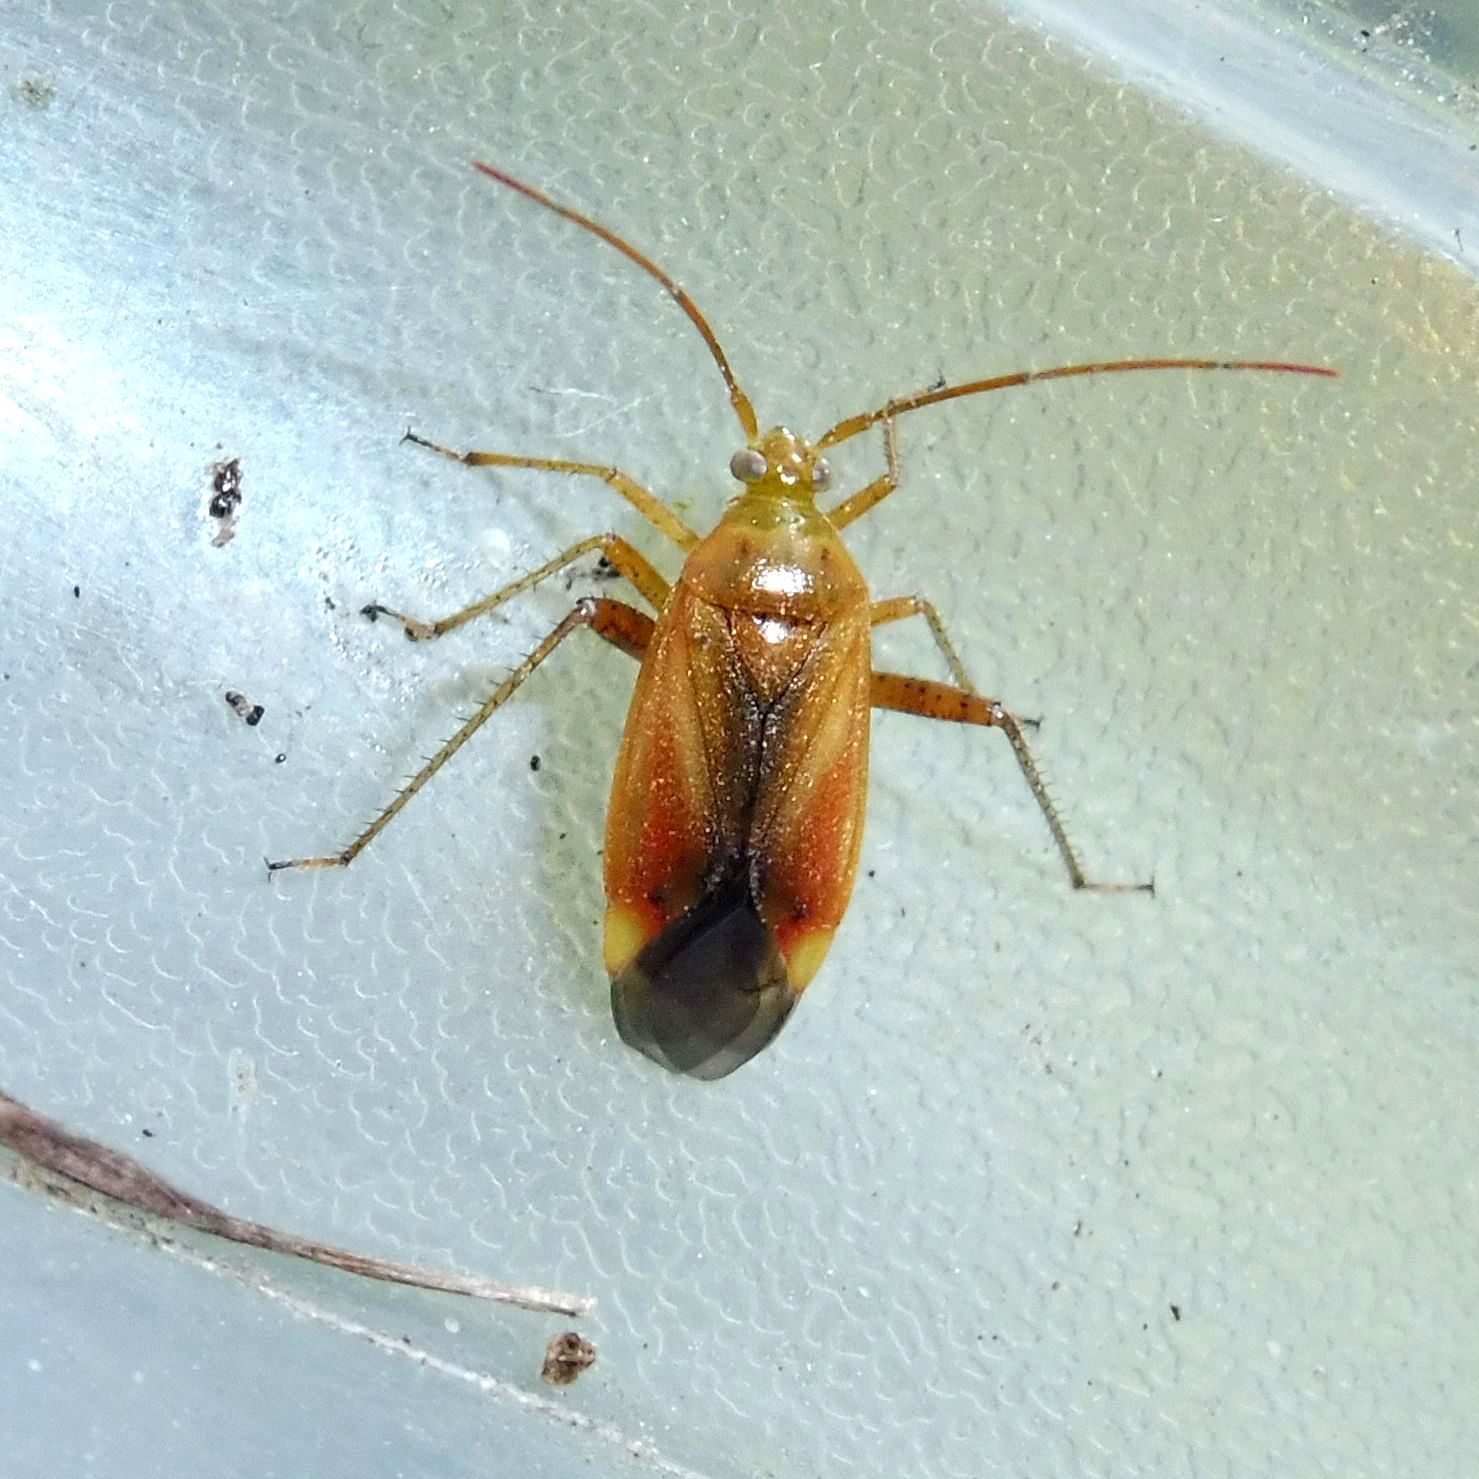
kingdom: Animalia
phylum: Arthropoda
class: Insecta
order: Hemiptera
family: Miridae
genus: Adelphocoris
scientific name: Adelphocoris ticinensis
